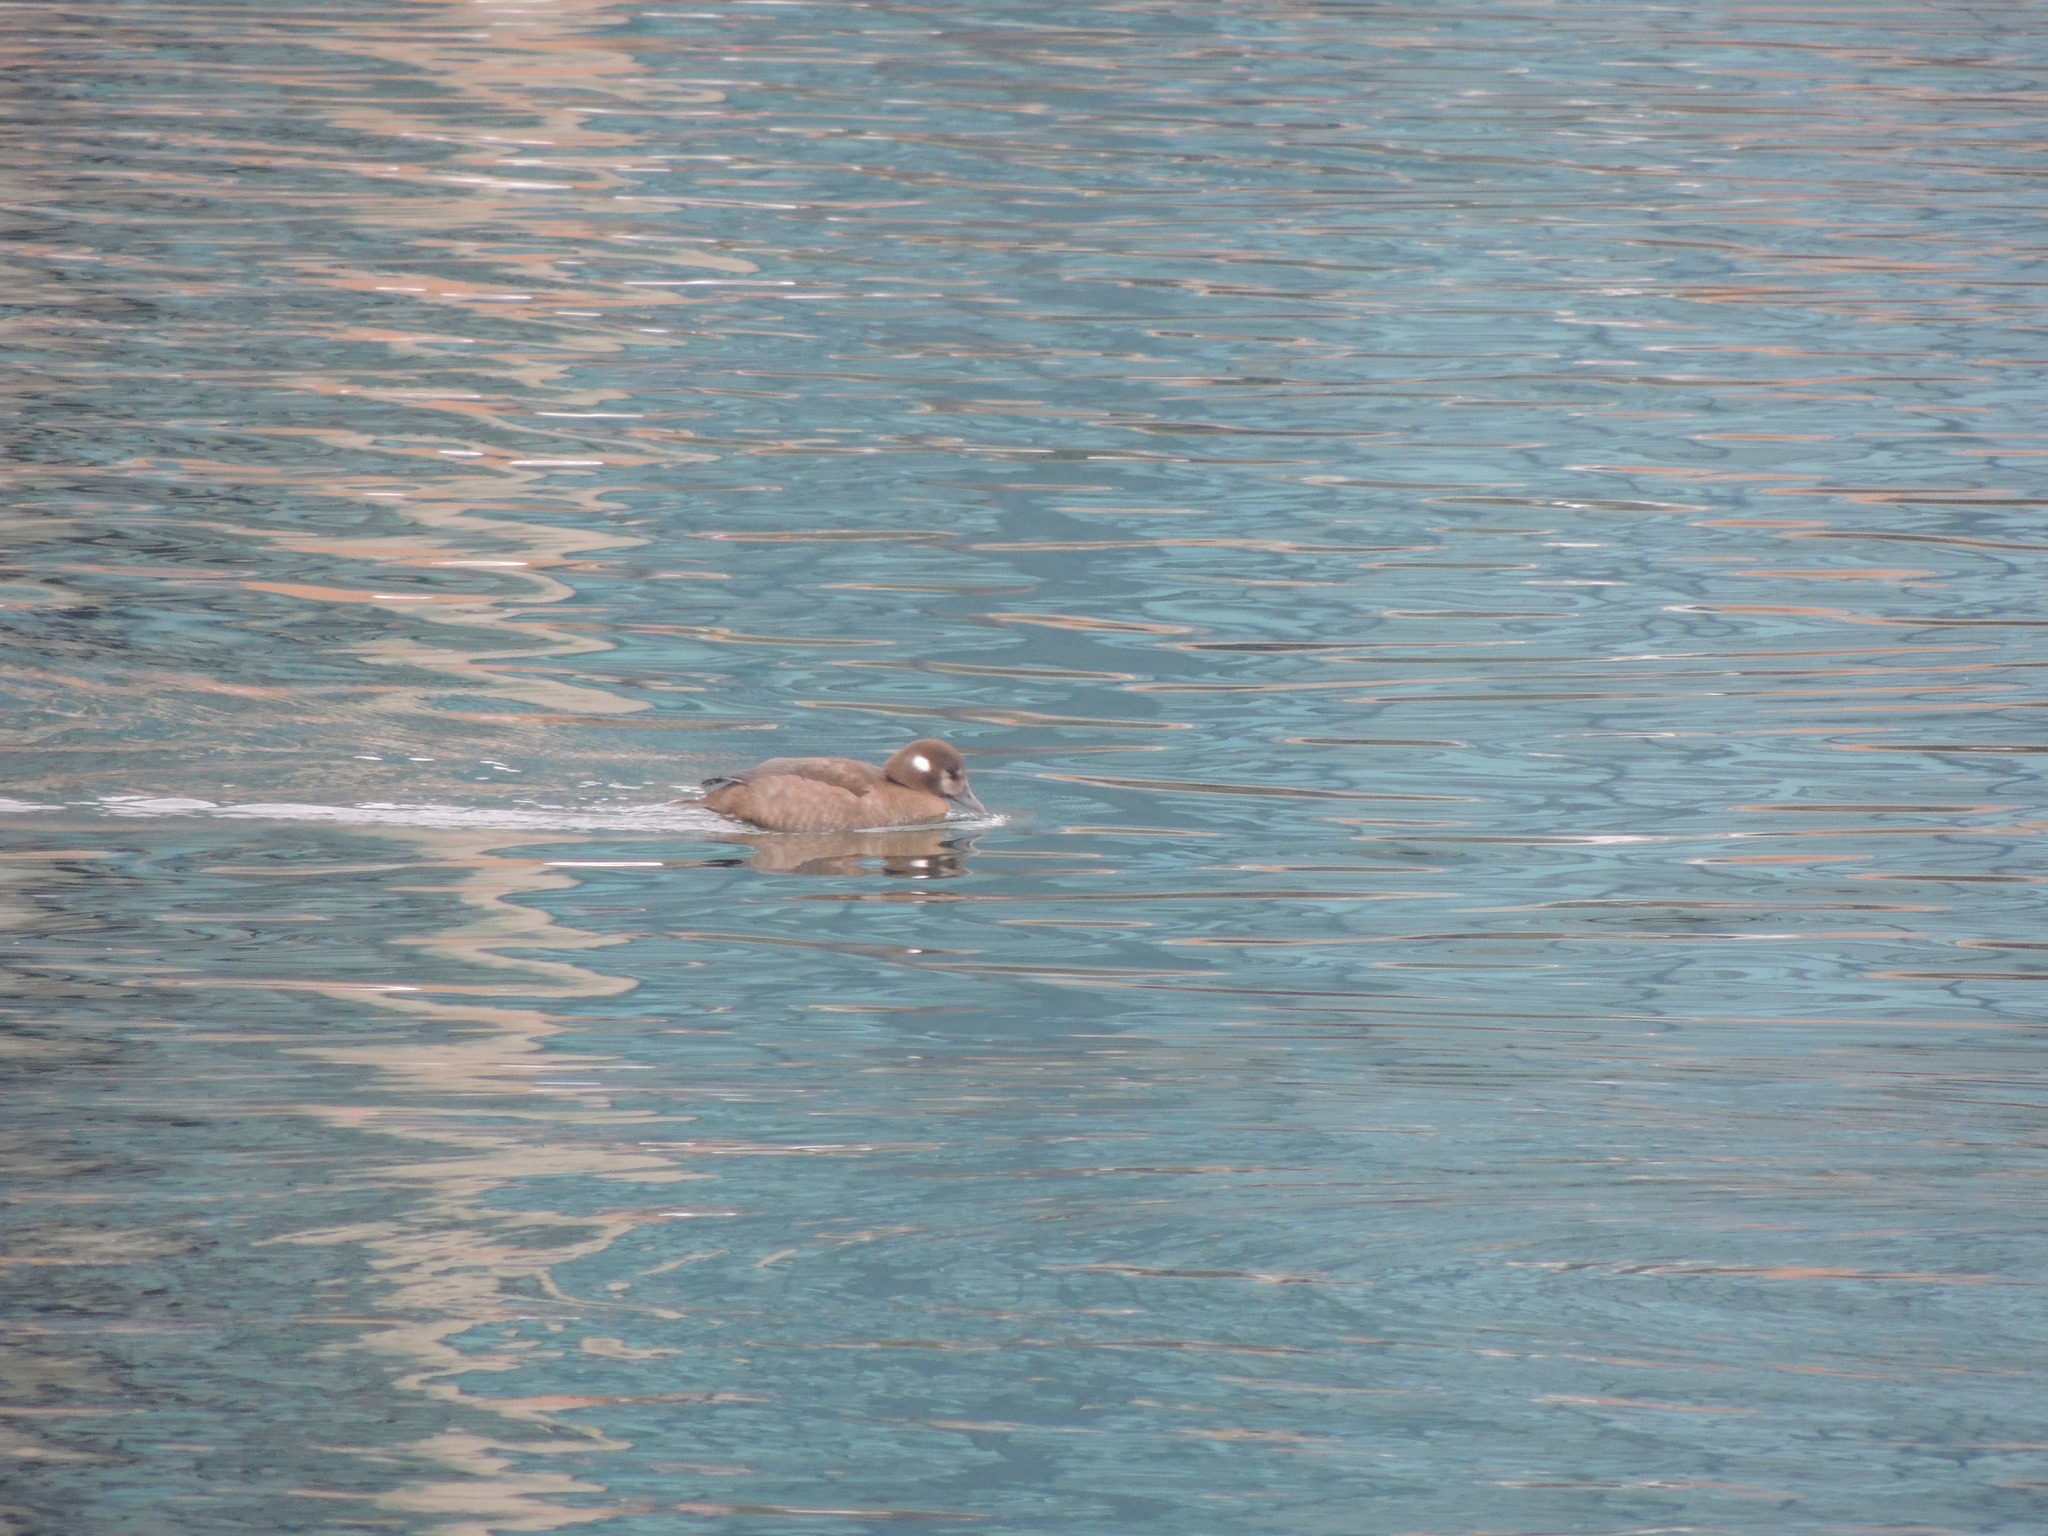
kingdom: Animalia
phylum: Chordata
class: Aves
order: Anseriformes
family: Anatidae
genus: Histrionicus
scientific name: Histrionicus histrionicus
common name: Harlequin duck
